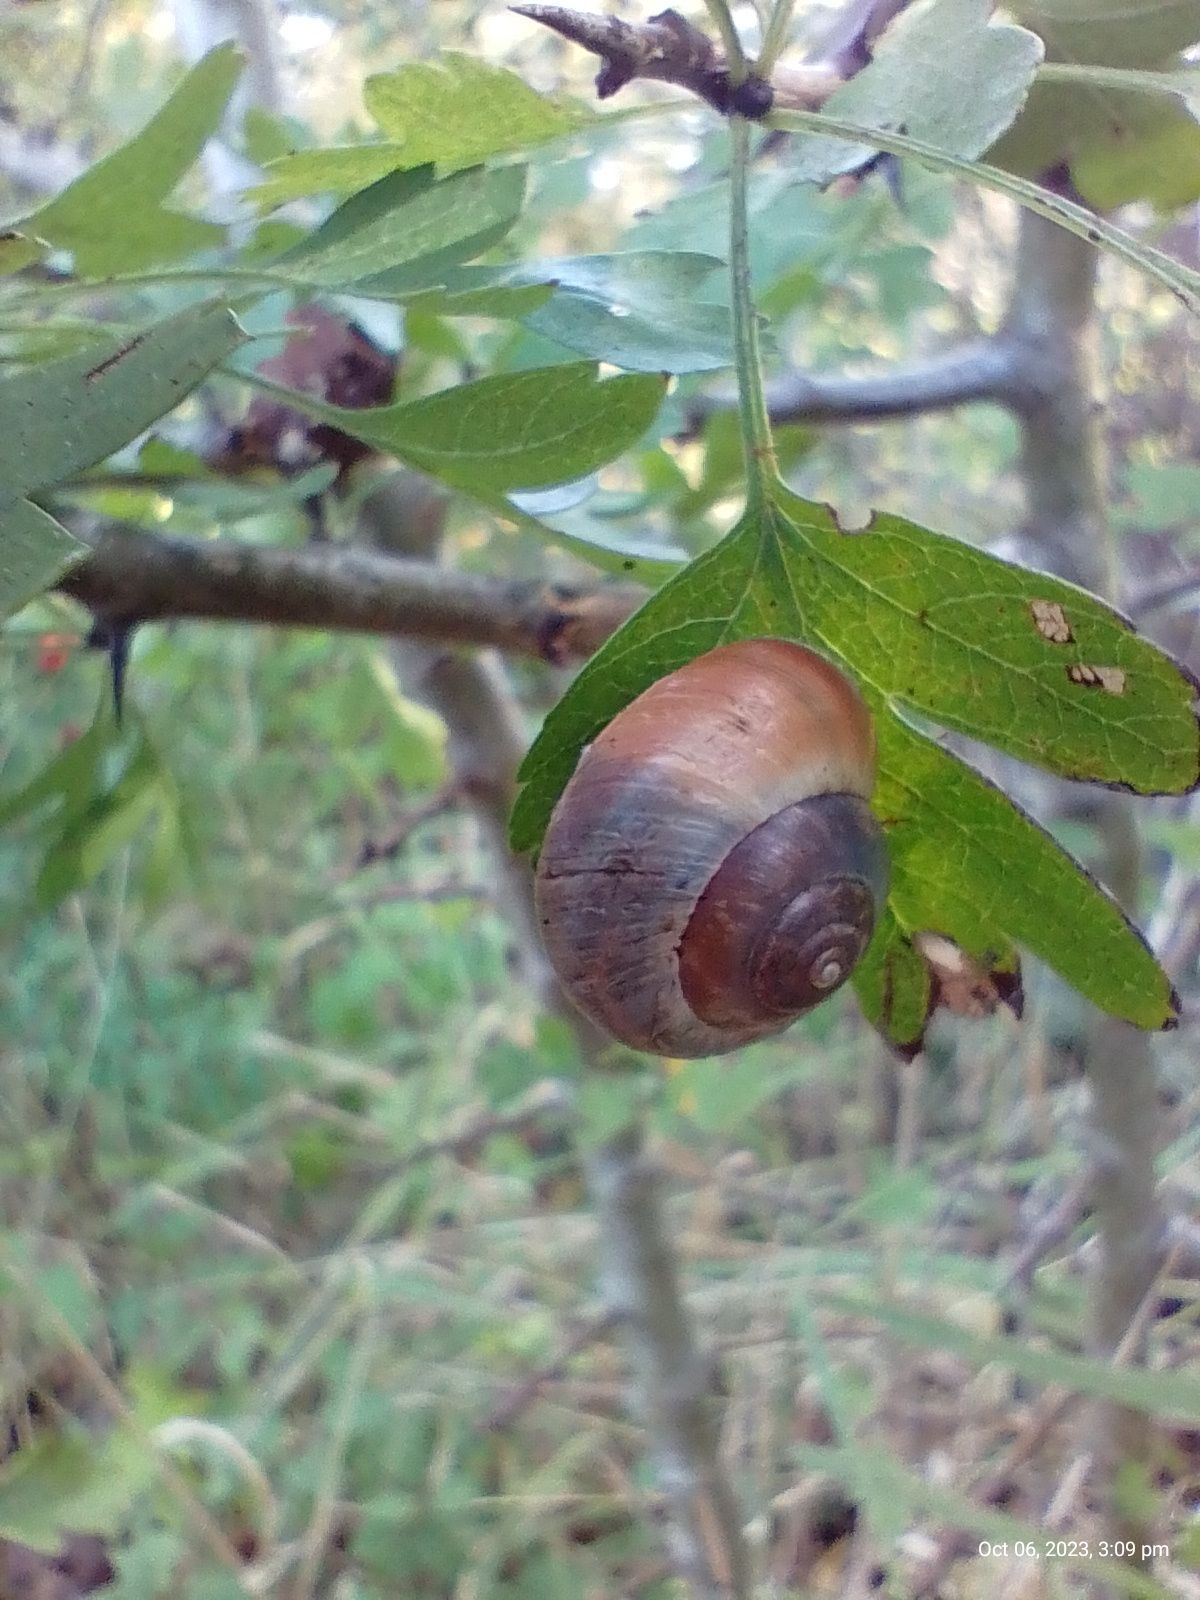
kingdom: Animalia
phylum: Mollusca
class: Gastropoda
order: Stylommatophora
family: Hygromiidae
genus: Monacha
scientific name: Monacha cantiana
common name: Kentish snail
